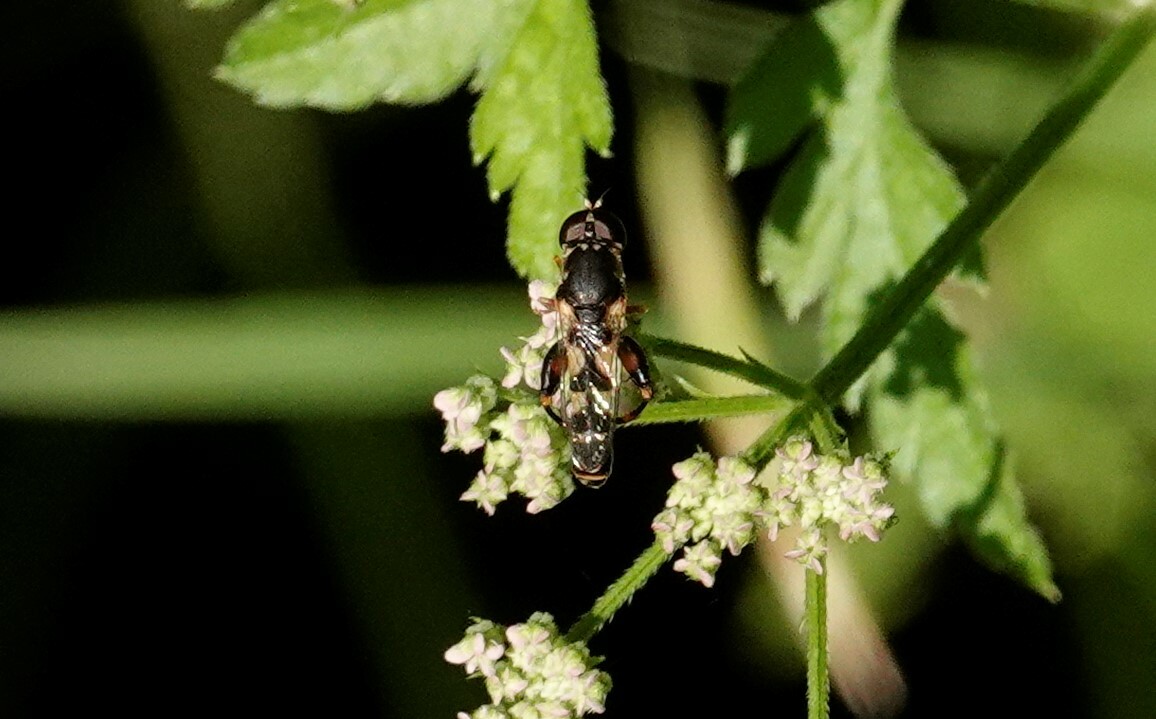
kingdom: Animalia
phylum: Arthropoda
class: Insecta
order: Diptera
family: Syrphidae
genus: Syritta
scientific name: Syritta pipiens
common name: Hover fly
